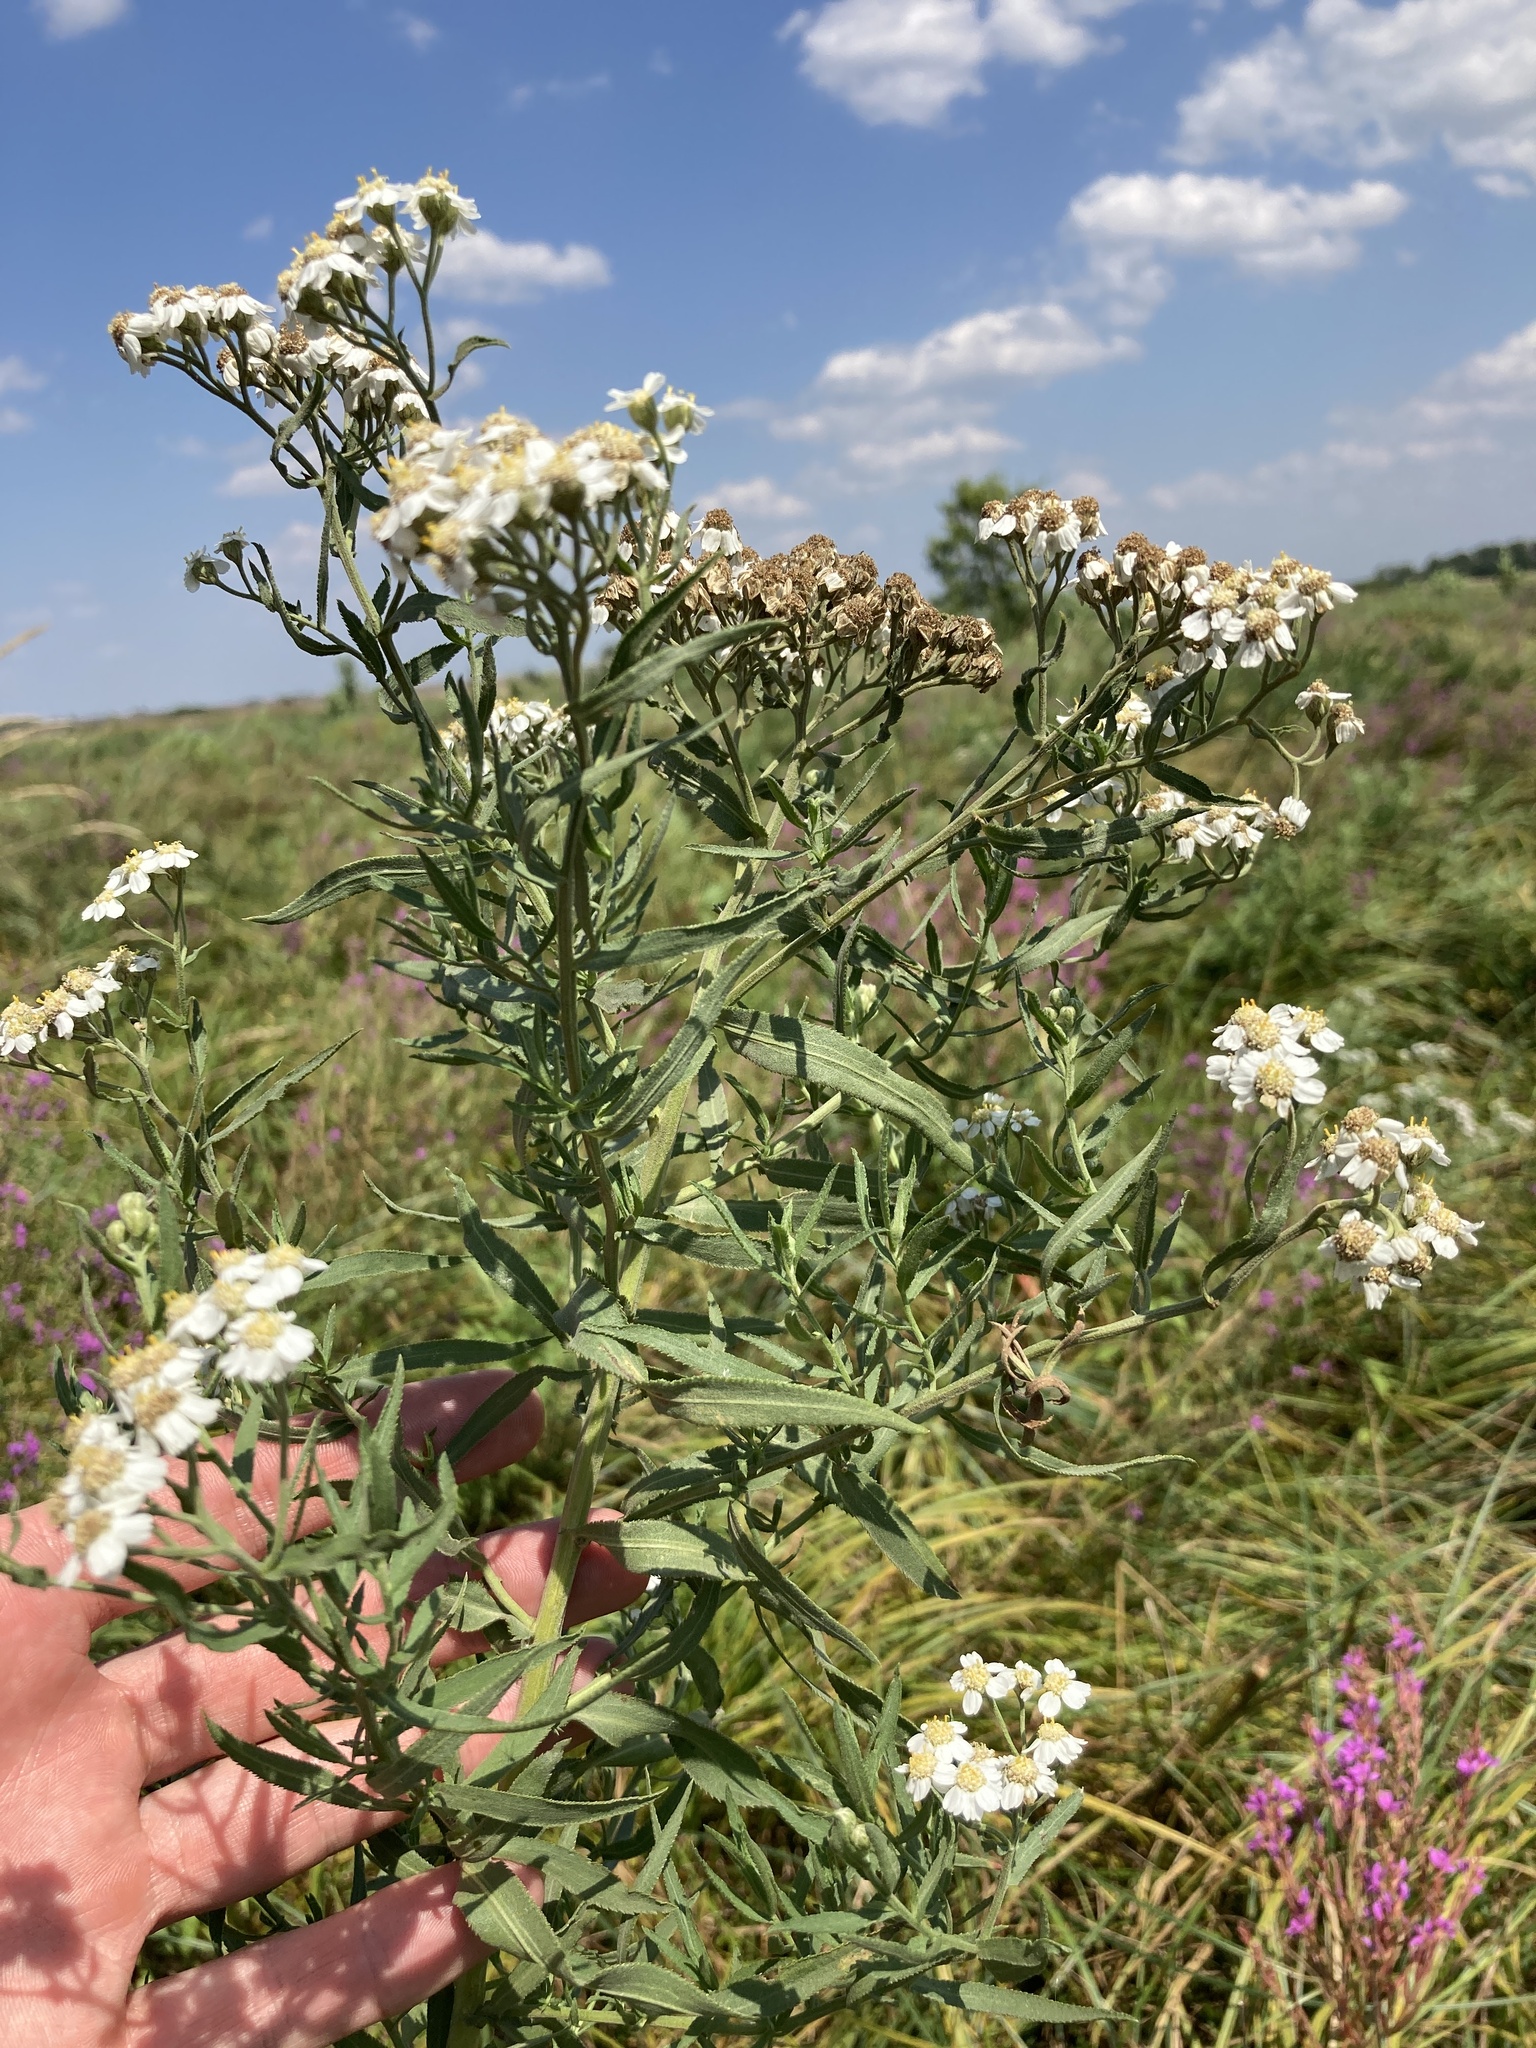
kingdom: Plantae
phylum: Tracheophyta
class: Magnoliopsida
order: Asterales
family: Asteraceae
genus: Achillea
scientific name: Achillea salicifolia
